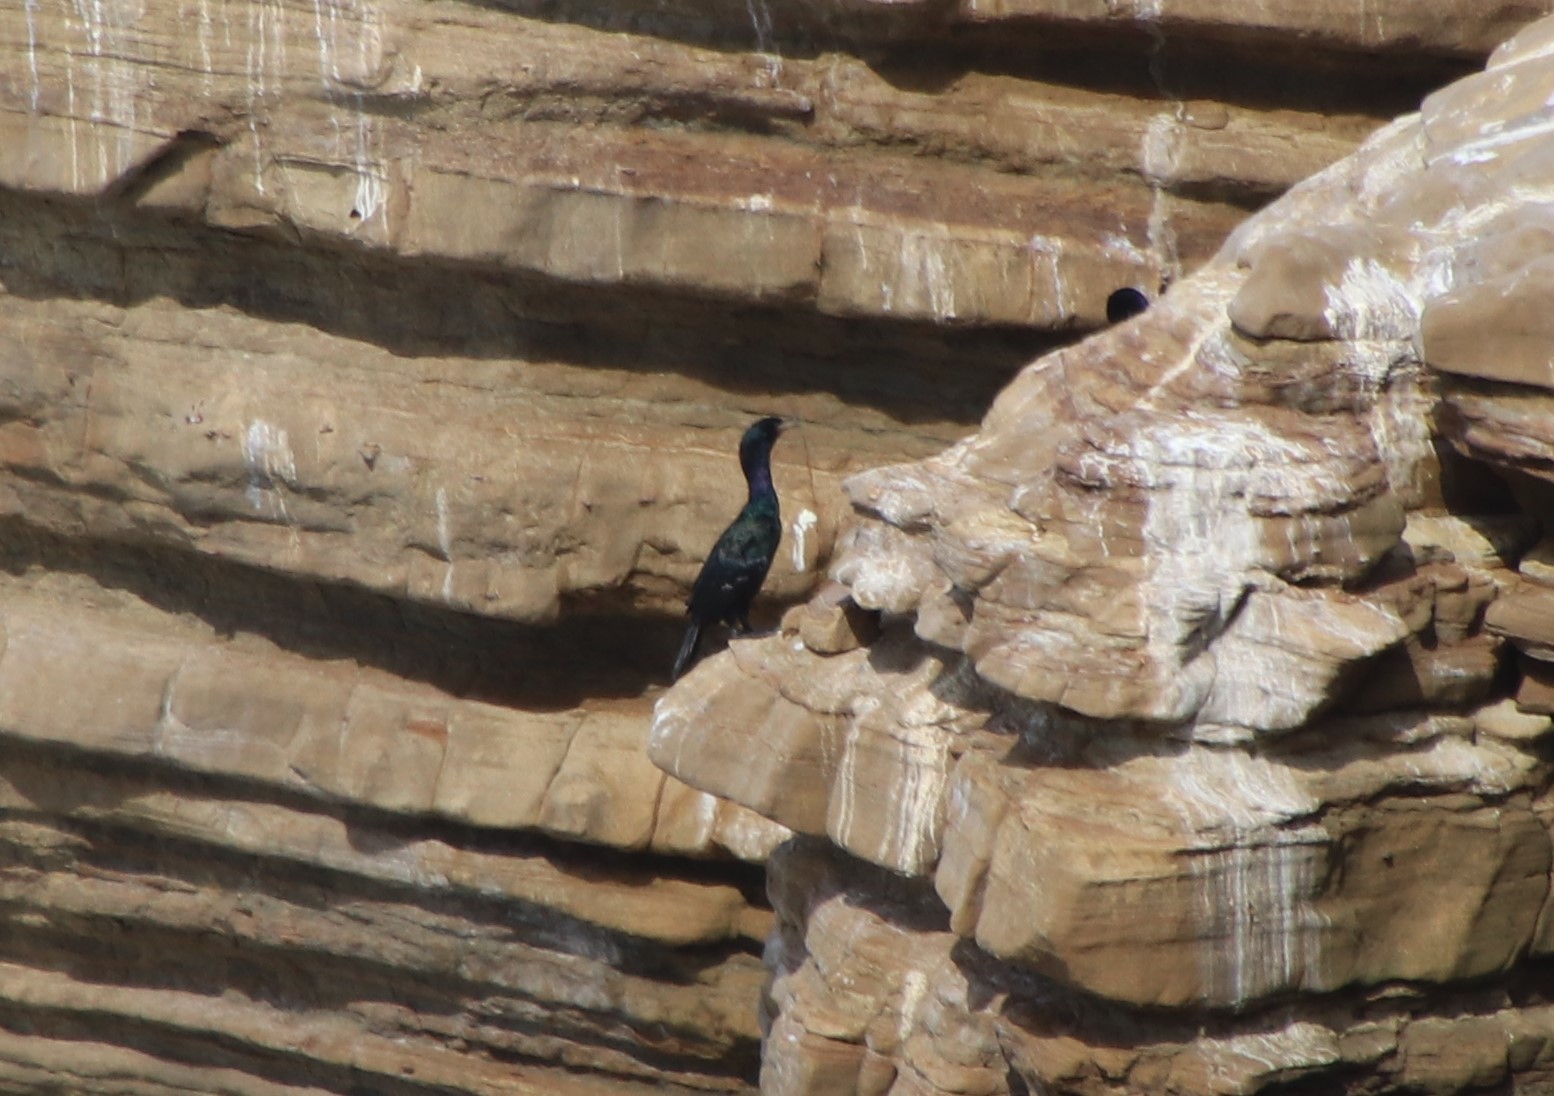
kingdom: Animalia
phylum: Chordata
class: Aves
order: Suliformes
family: Phalacrocoracidae
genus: Phalacrocorax
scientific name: Phalacrocorax pelagicus
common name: Pelagic cormorant
